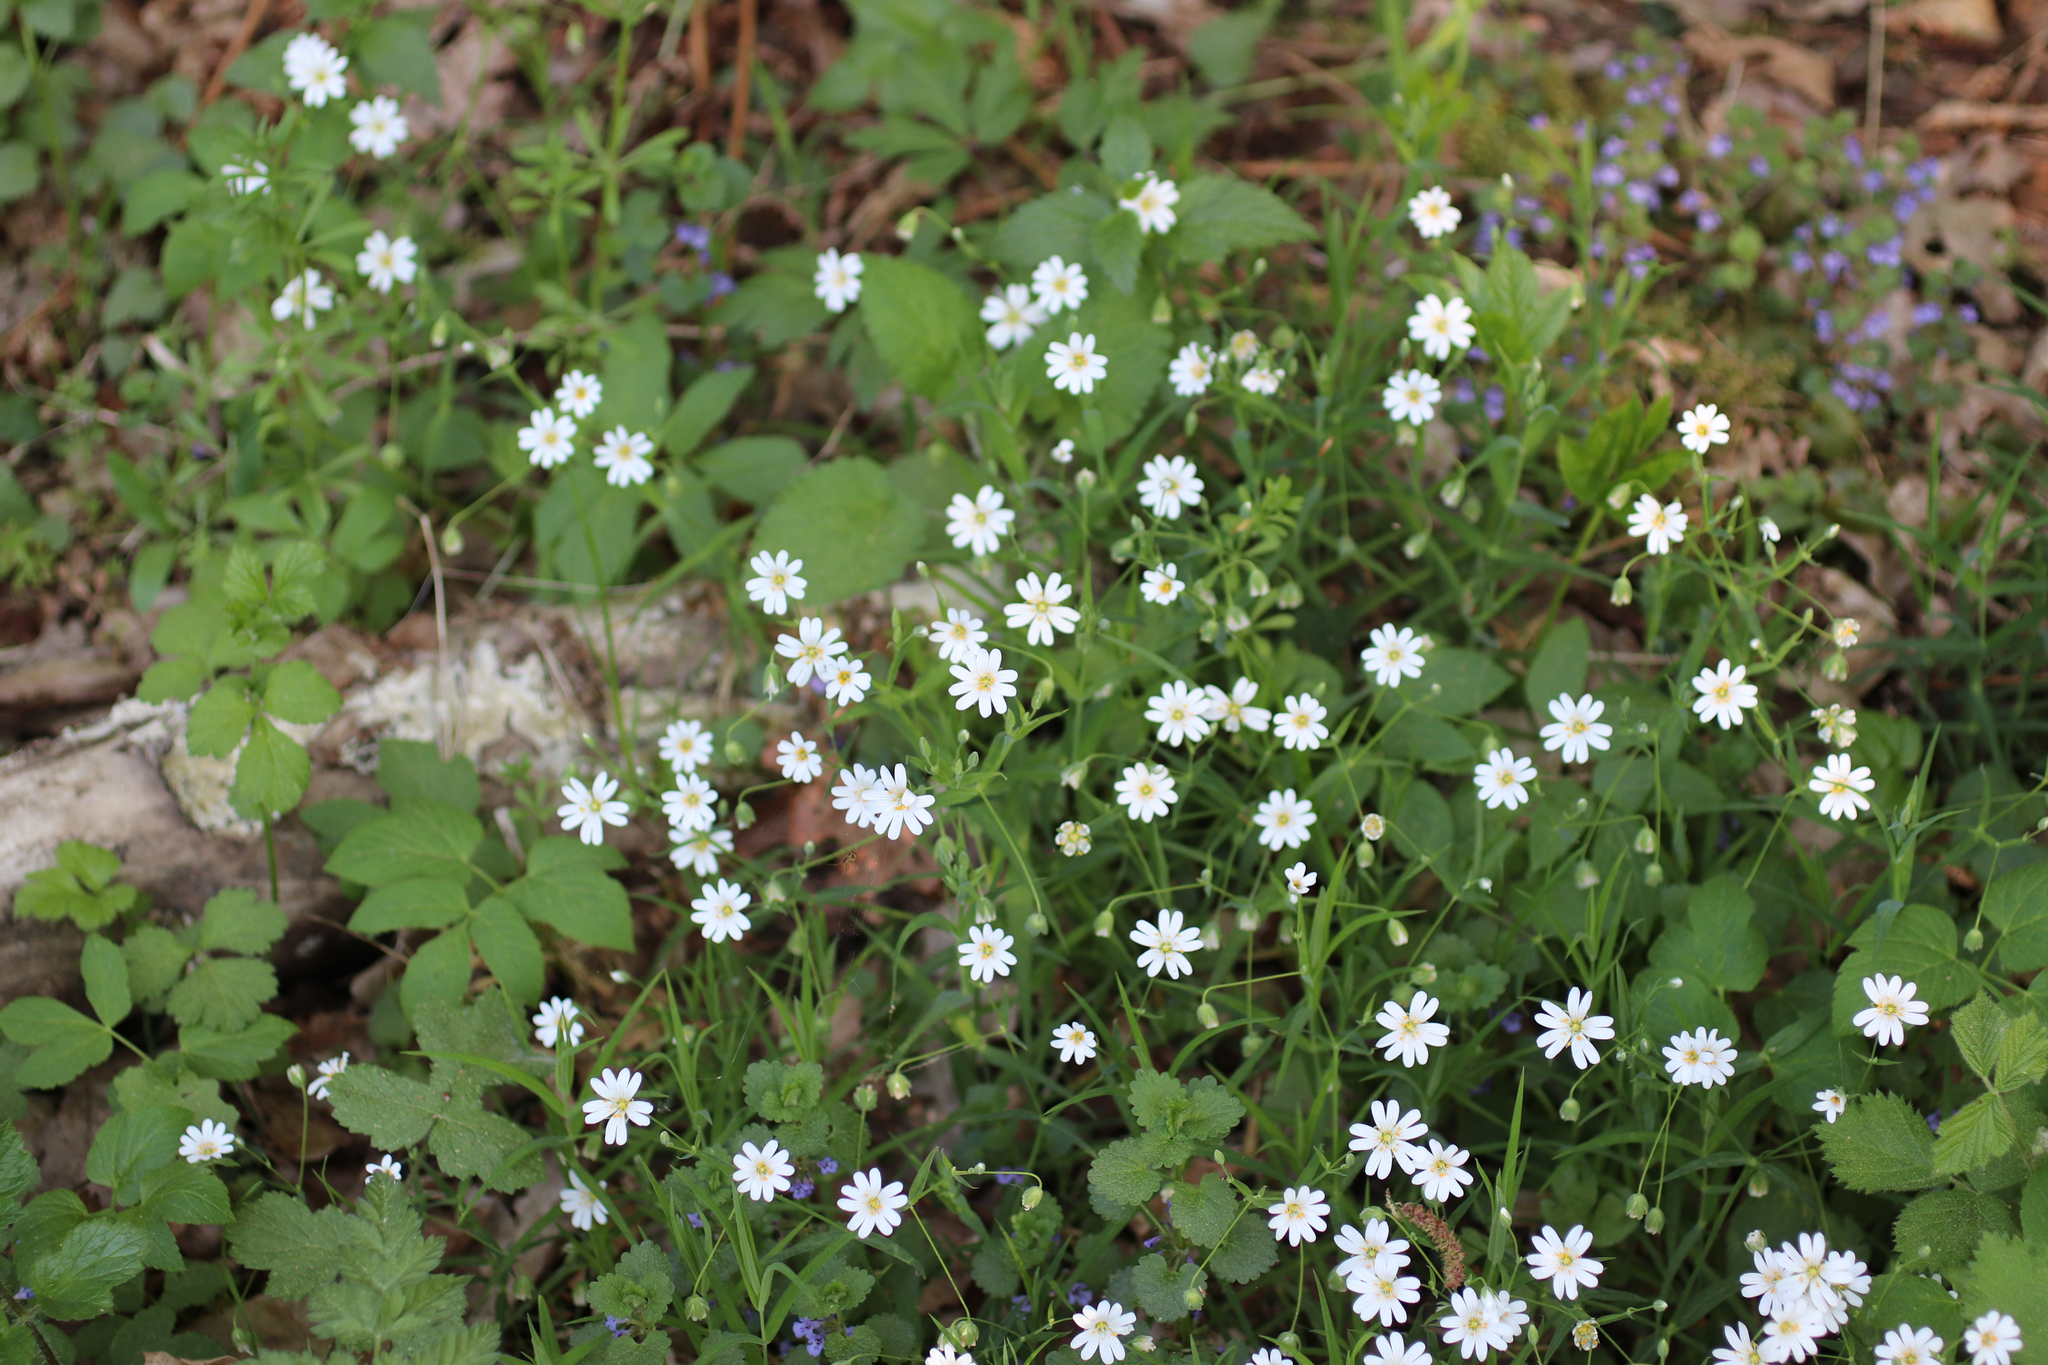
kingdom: Plantae
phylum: Tracheophyta
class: Magnoliopsida
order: Caryophyllales
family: Caryophyllaceae
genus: Rabelera
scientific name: Rabelera holostea
